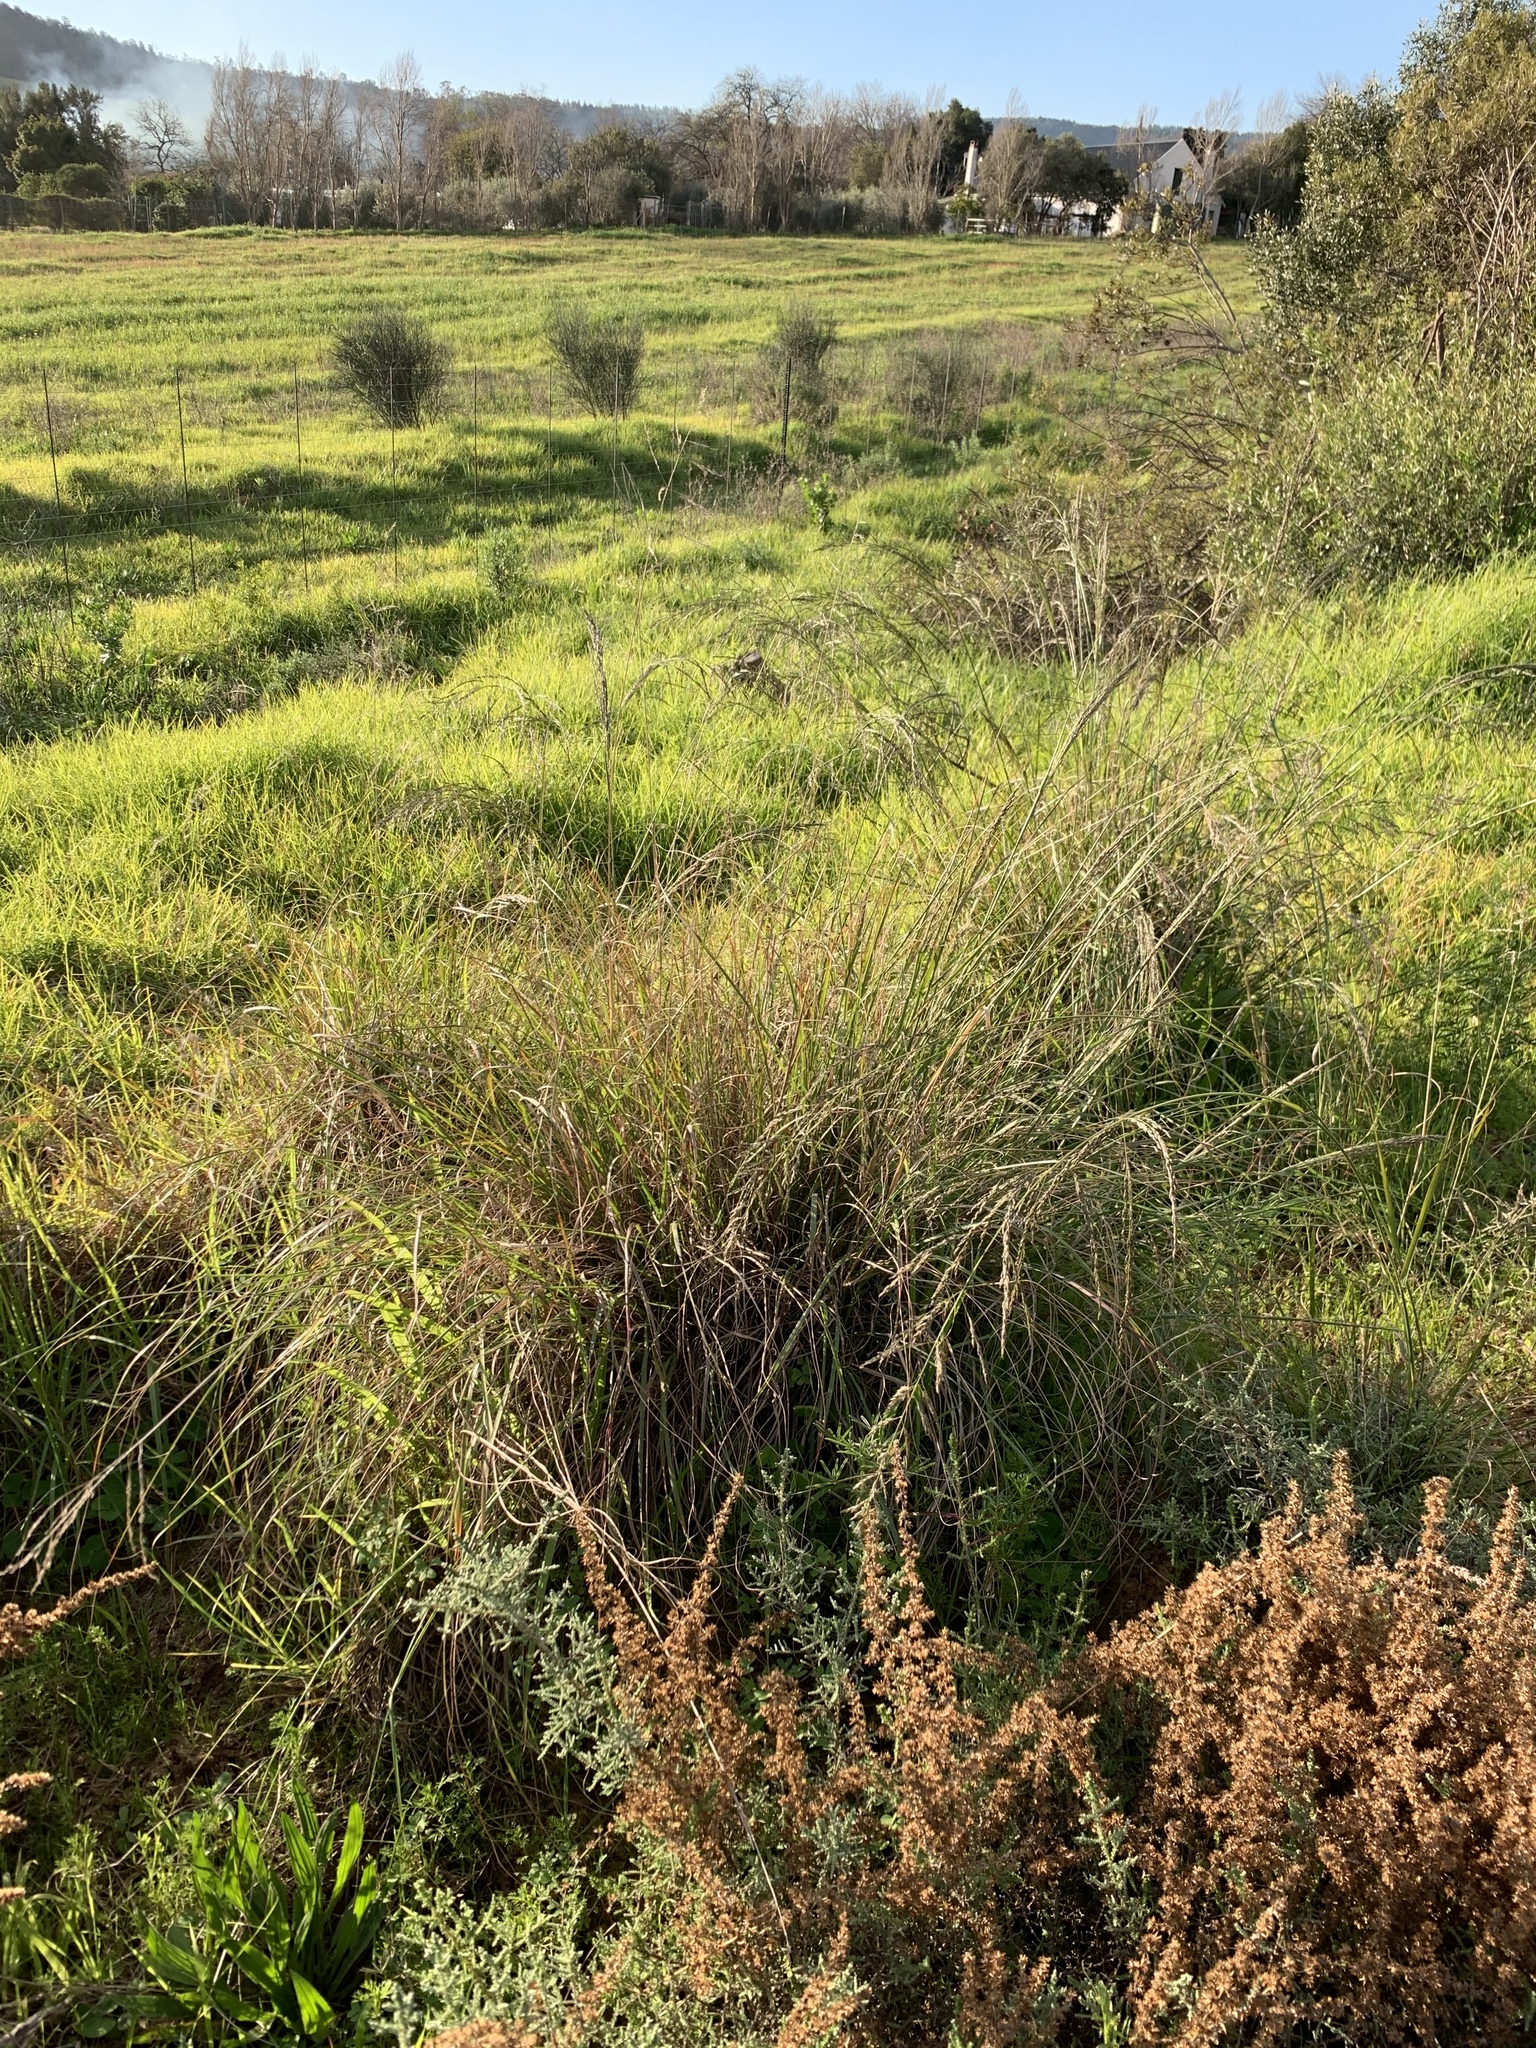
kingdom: Plantae
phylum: Tracheophyta
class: Liliopsida
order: Poales
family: Poaceae
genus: Eragrostis
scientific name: Eragrostis curvula
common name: African love-grass
